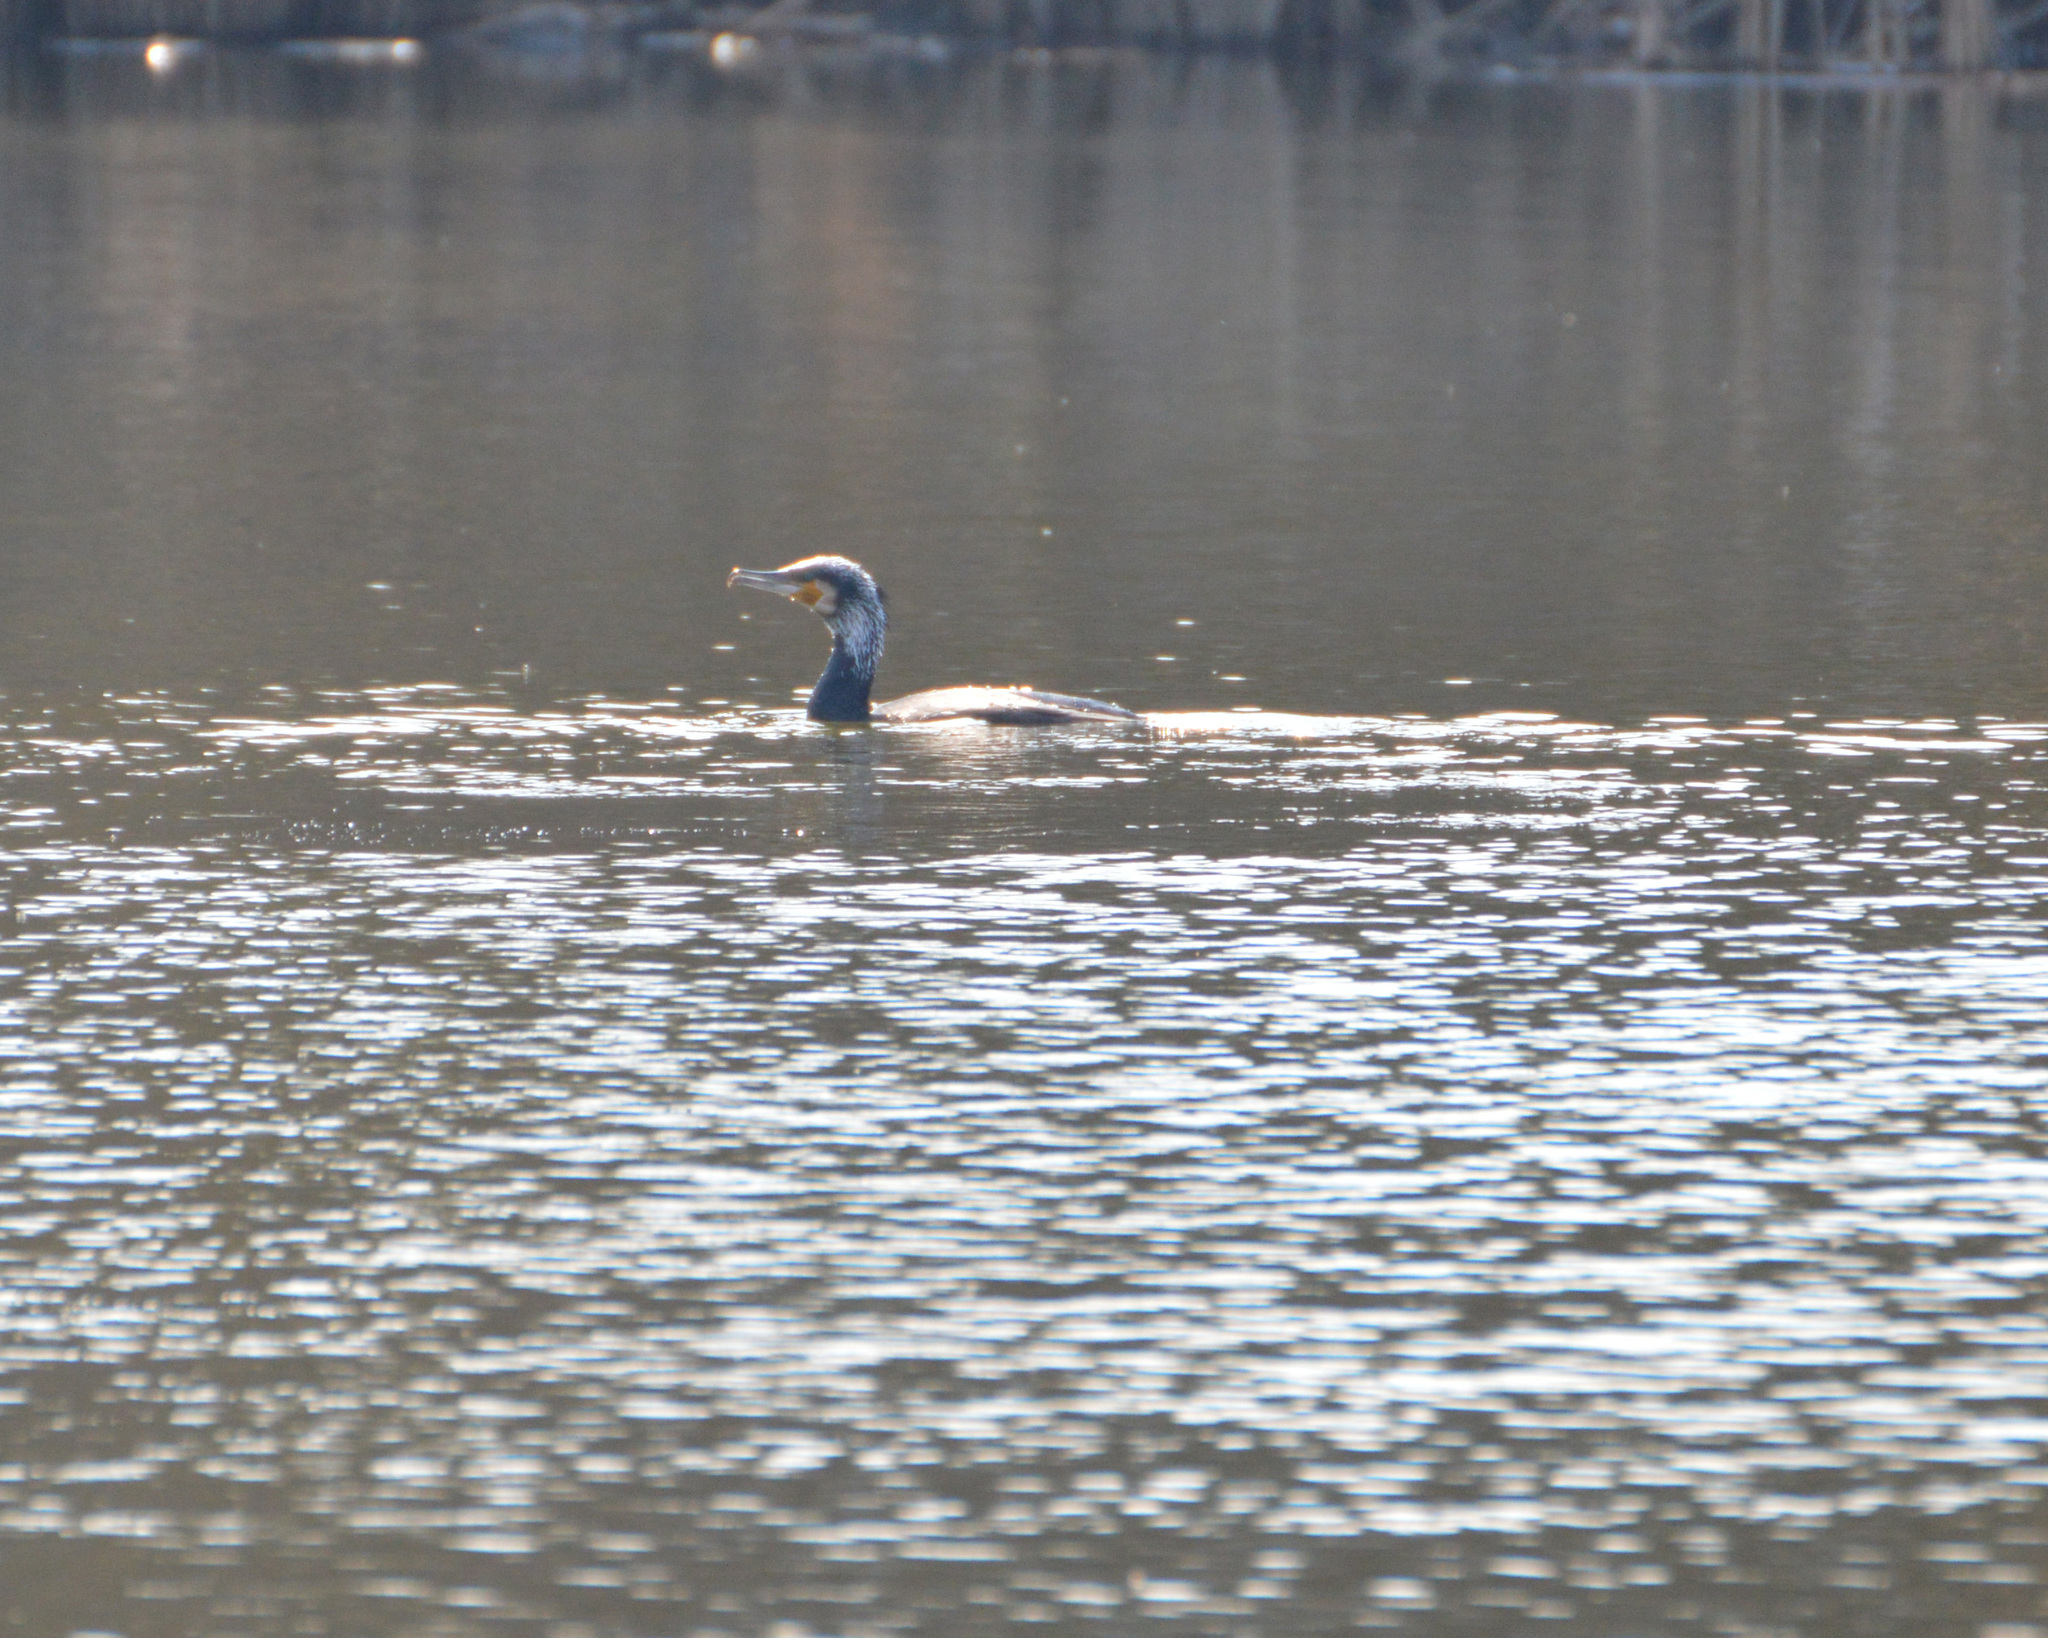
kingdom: Animalia
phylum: Chordata
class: Aves
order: Suliformes
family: Phalacrocoracidae
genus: Phalacrocorax
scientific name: Phalacrocorax carbo
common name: Great cormorant
